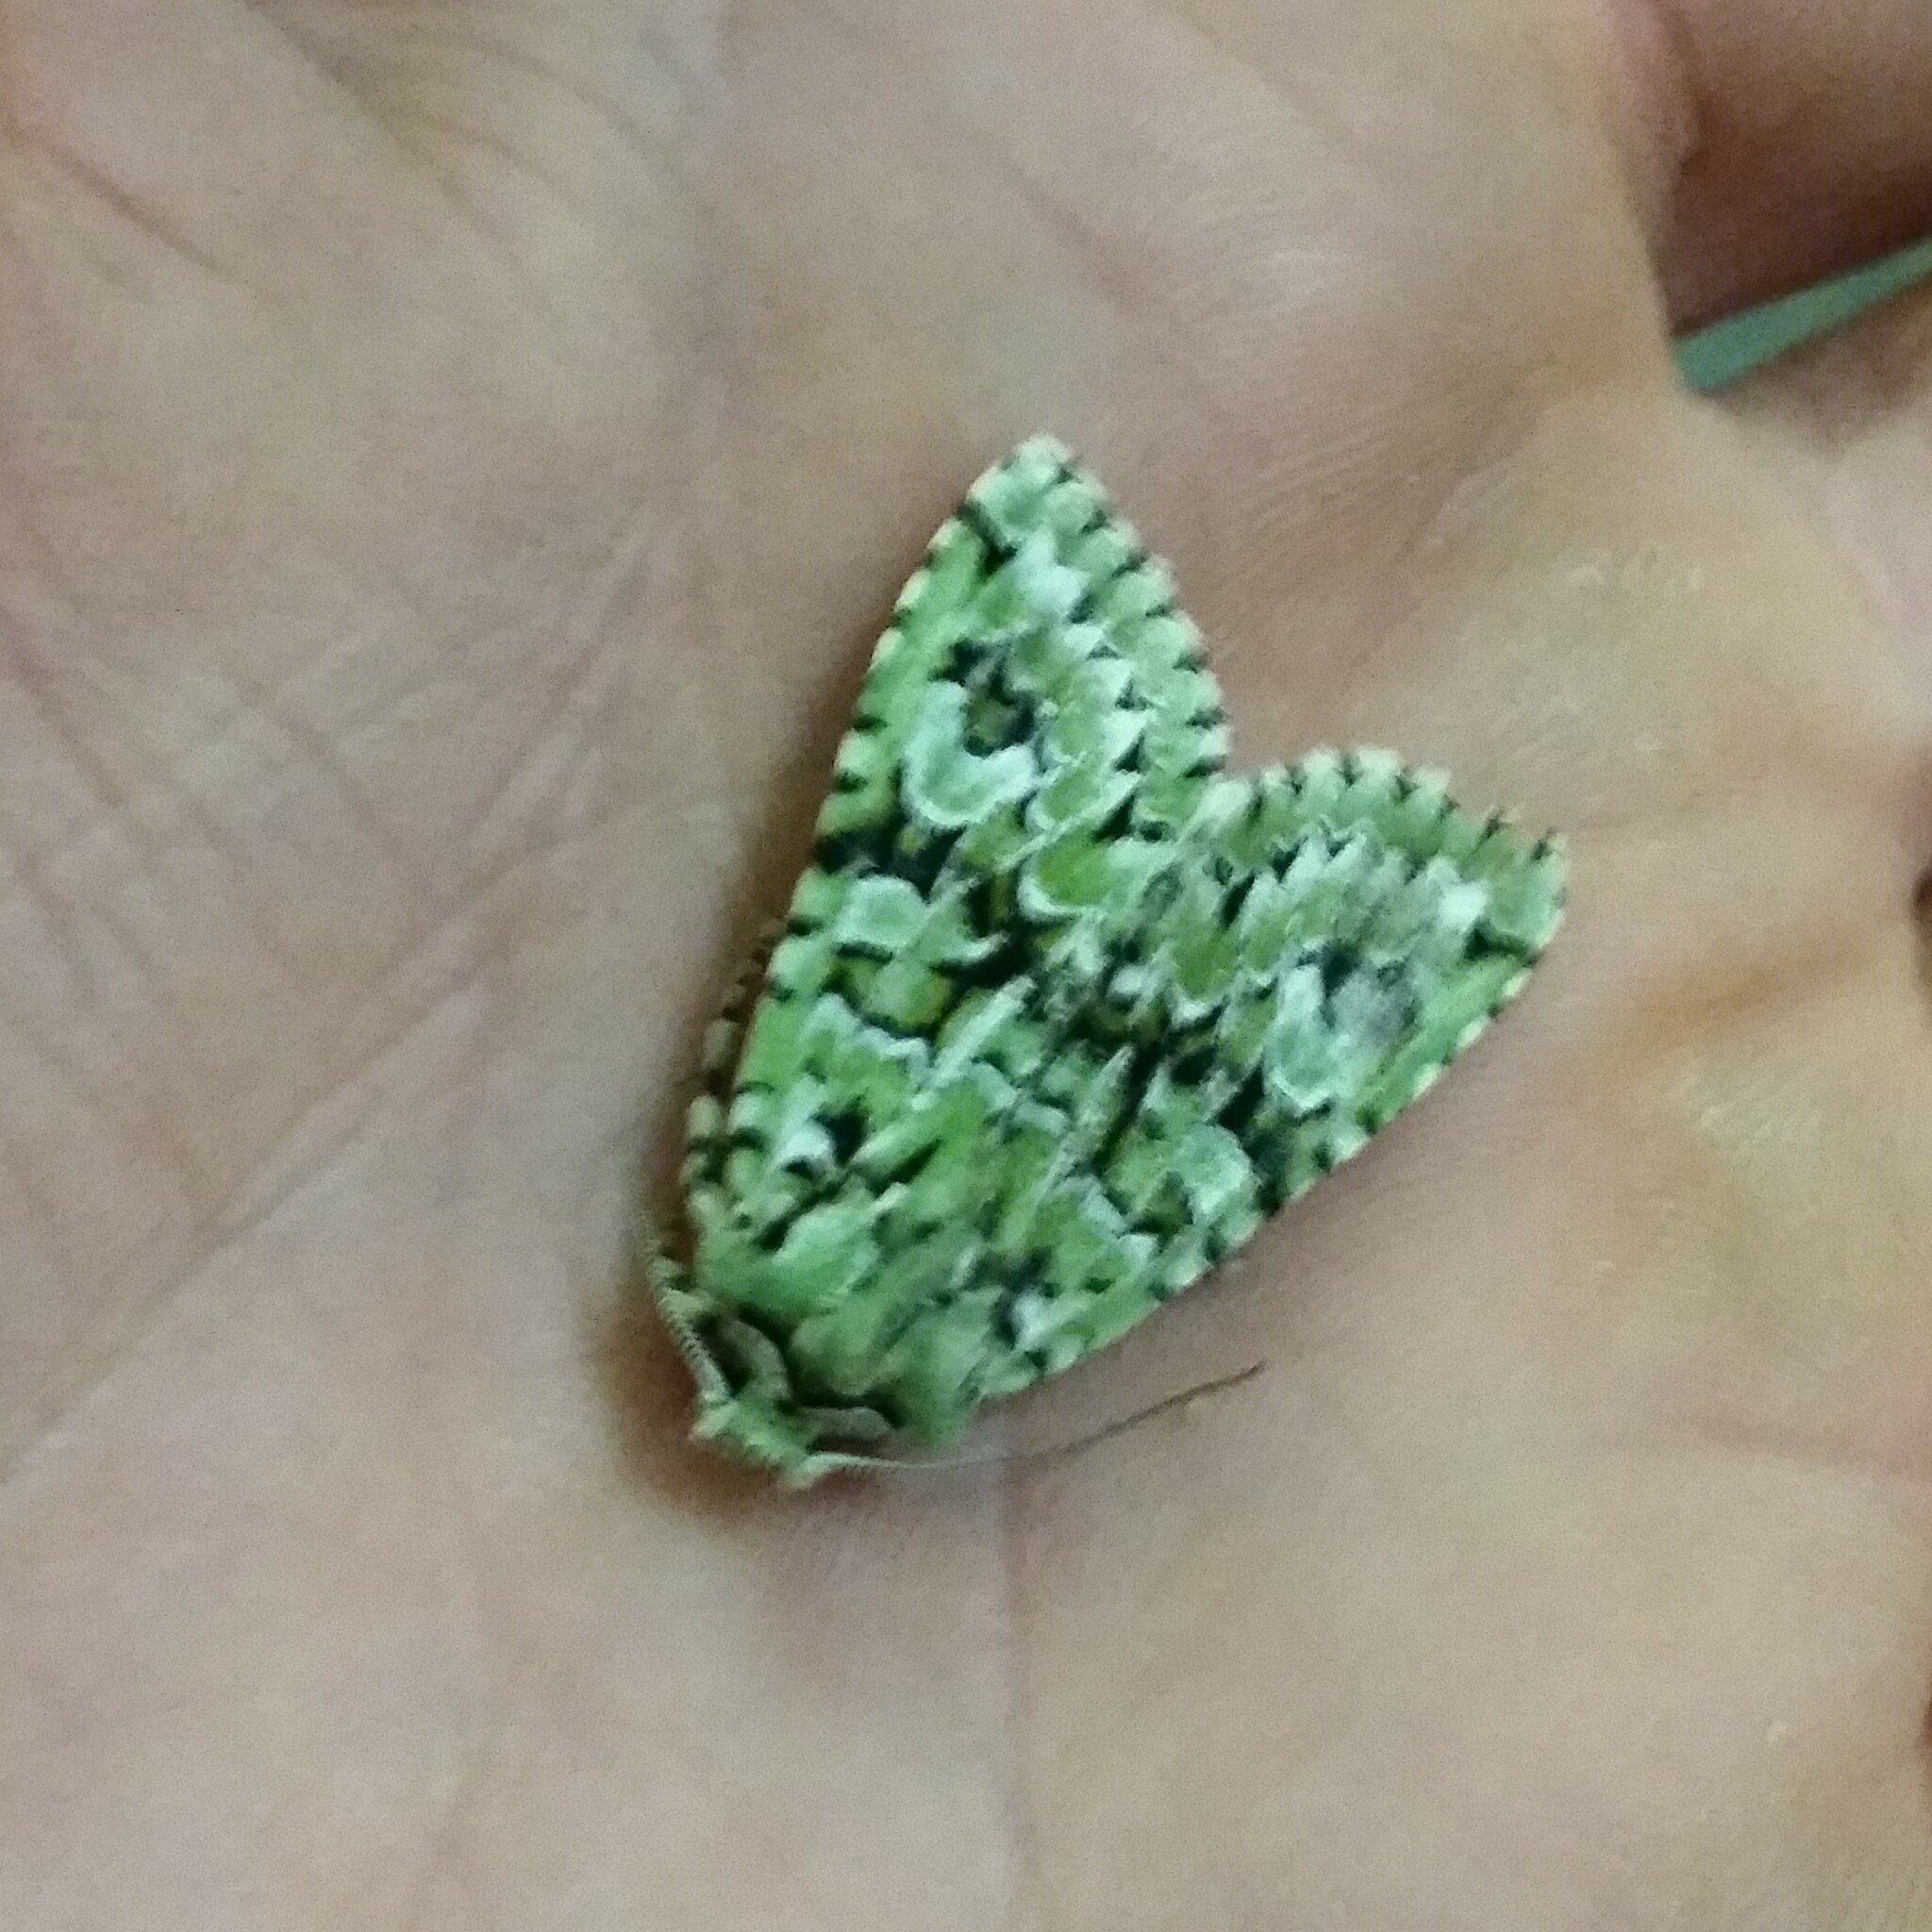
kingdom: Animalia
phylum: Arthropoda
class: Insecta
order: Lepidoptera
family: Noctuidae
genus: Griposia
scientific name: Griposia aprilina
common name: Merveille du jour
